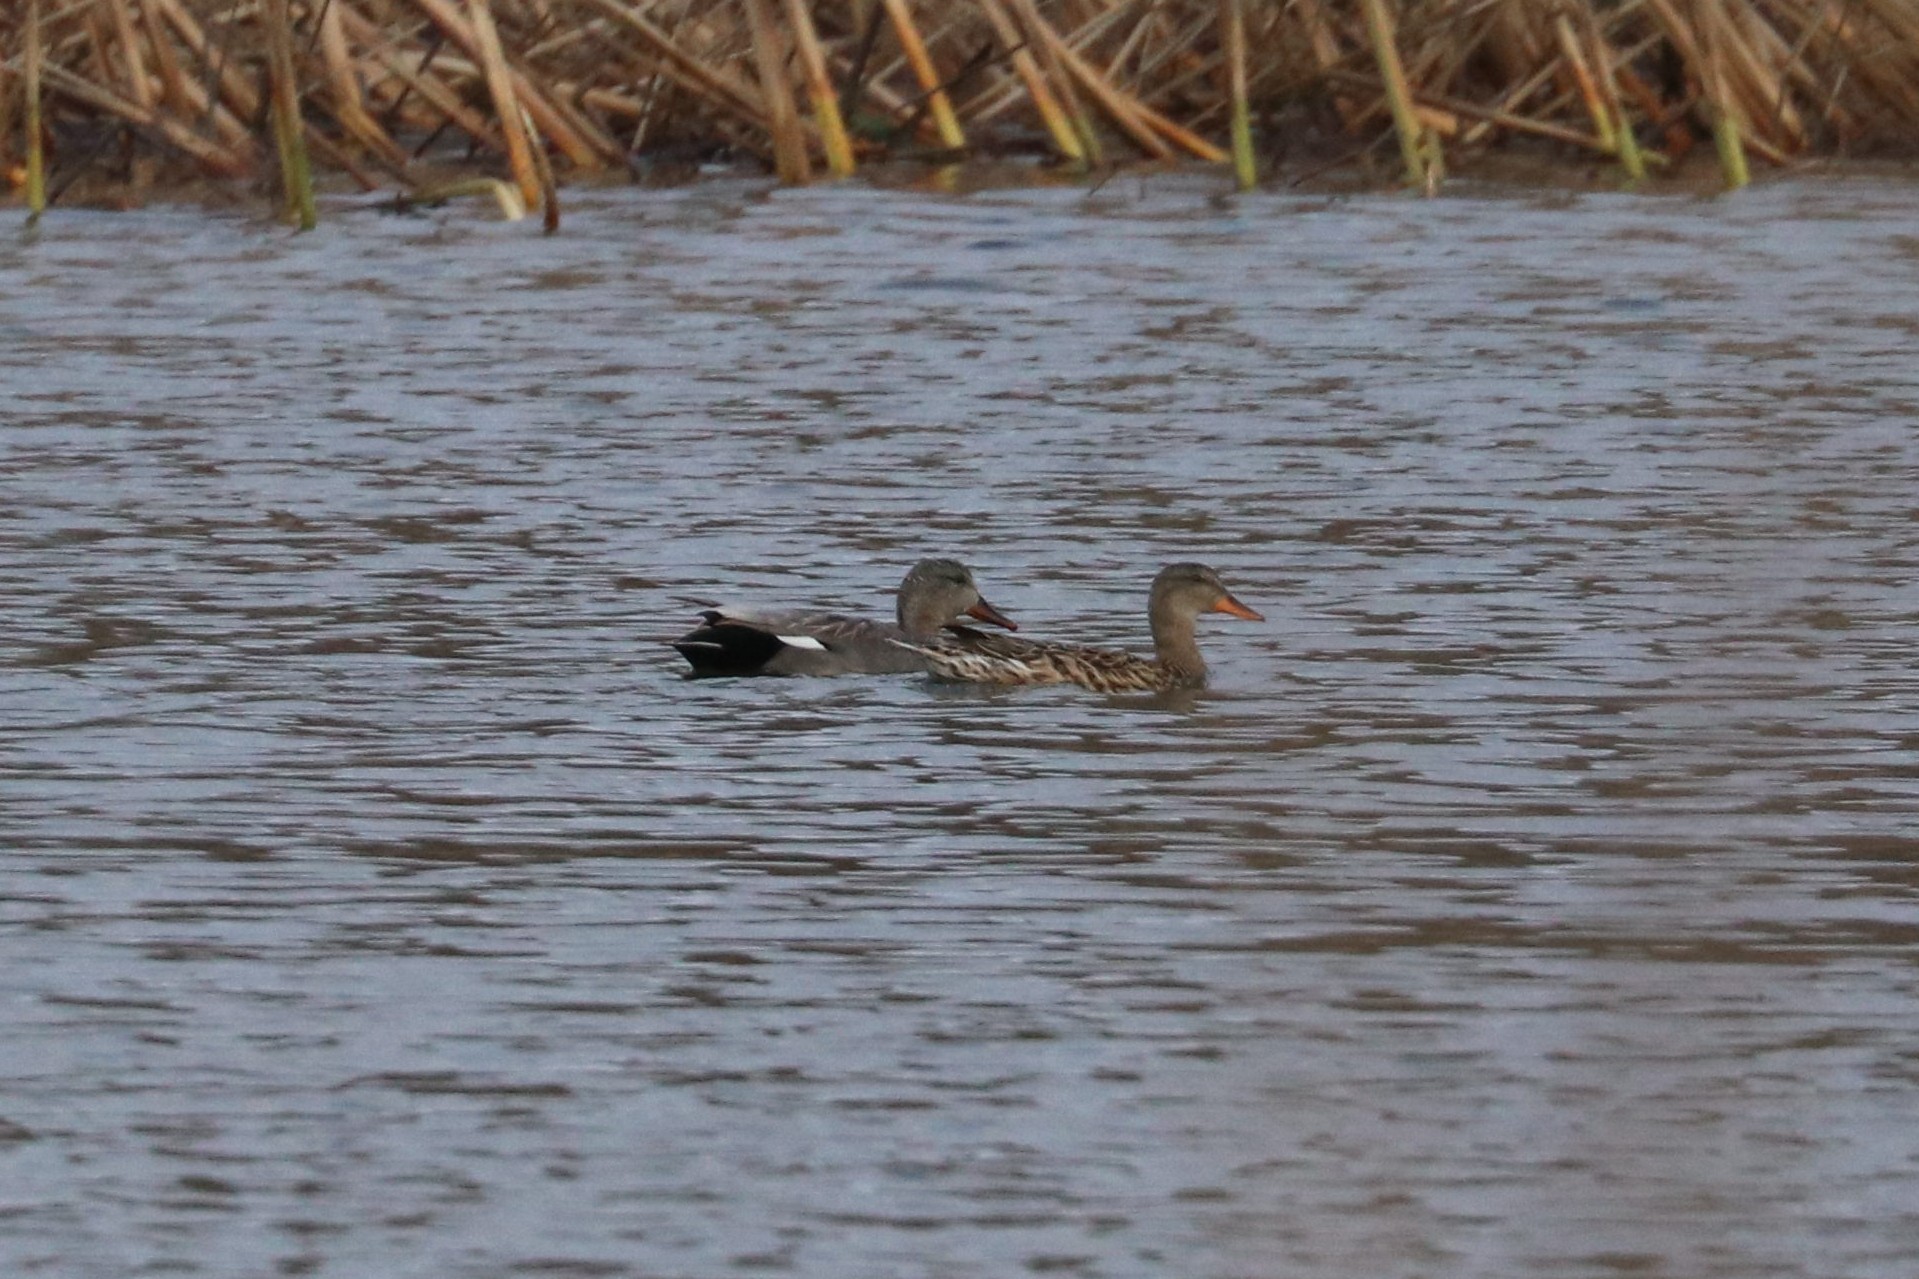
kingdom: Animalia
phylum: Chordata
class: Aves
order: Anseriformes
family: Anatidae
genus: Mareca
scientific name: Mareca strepera
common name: Gadwall
